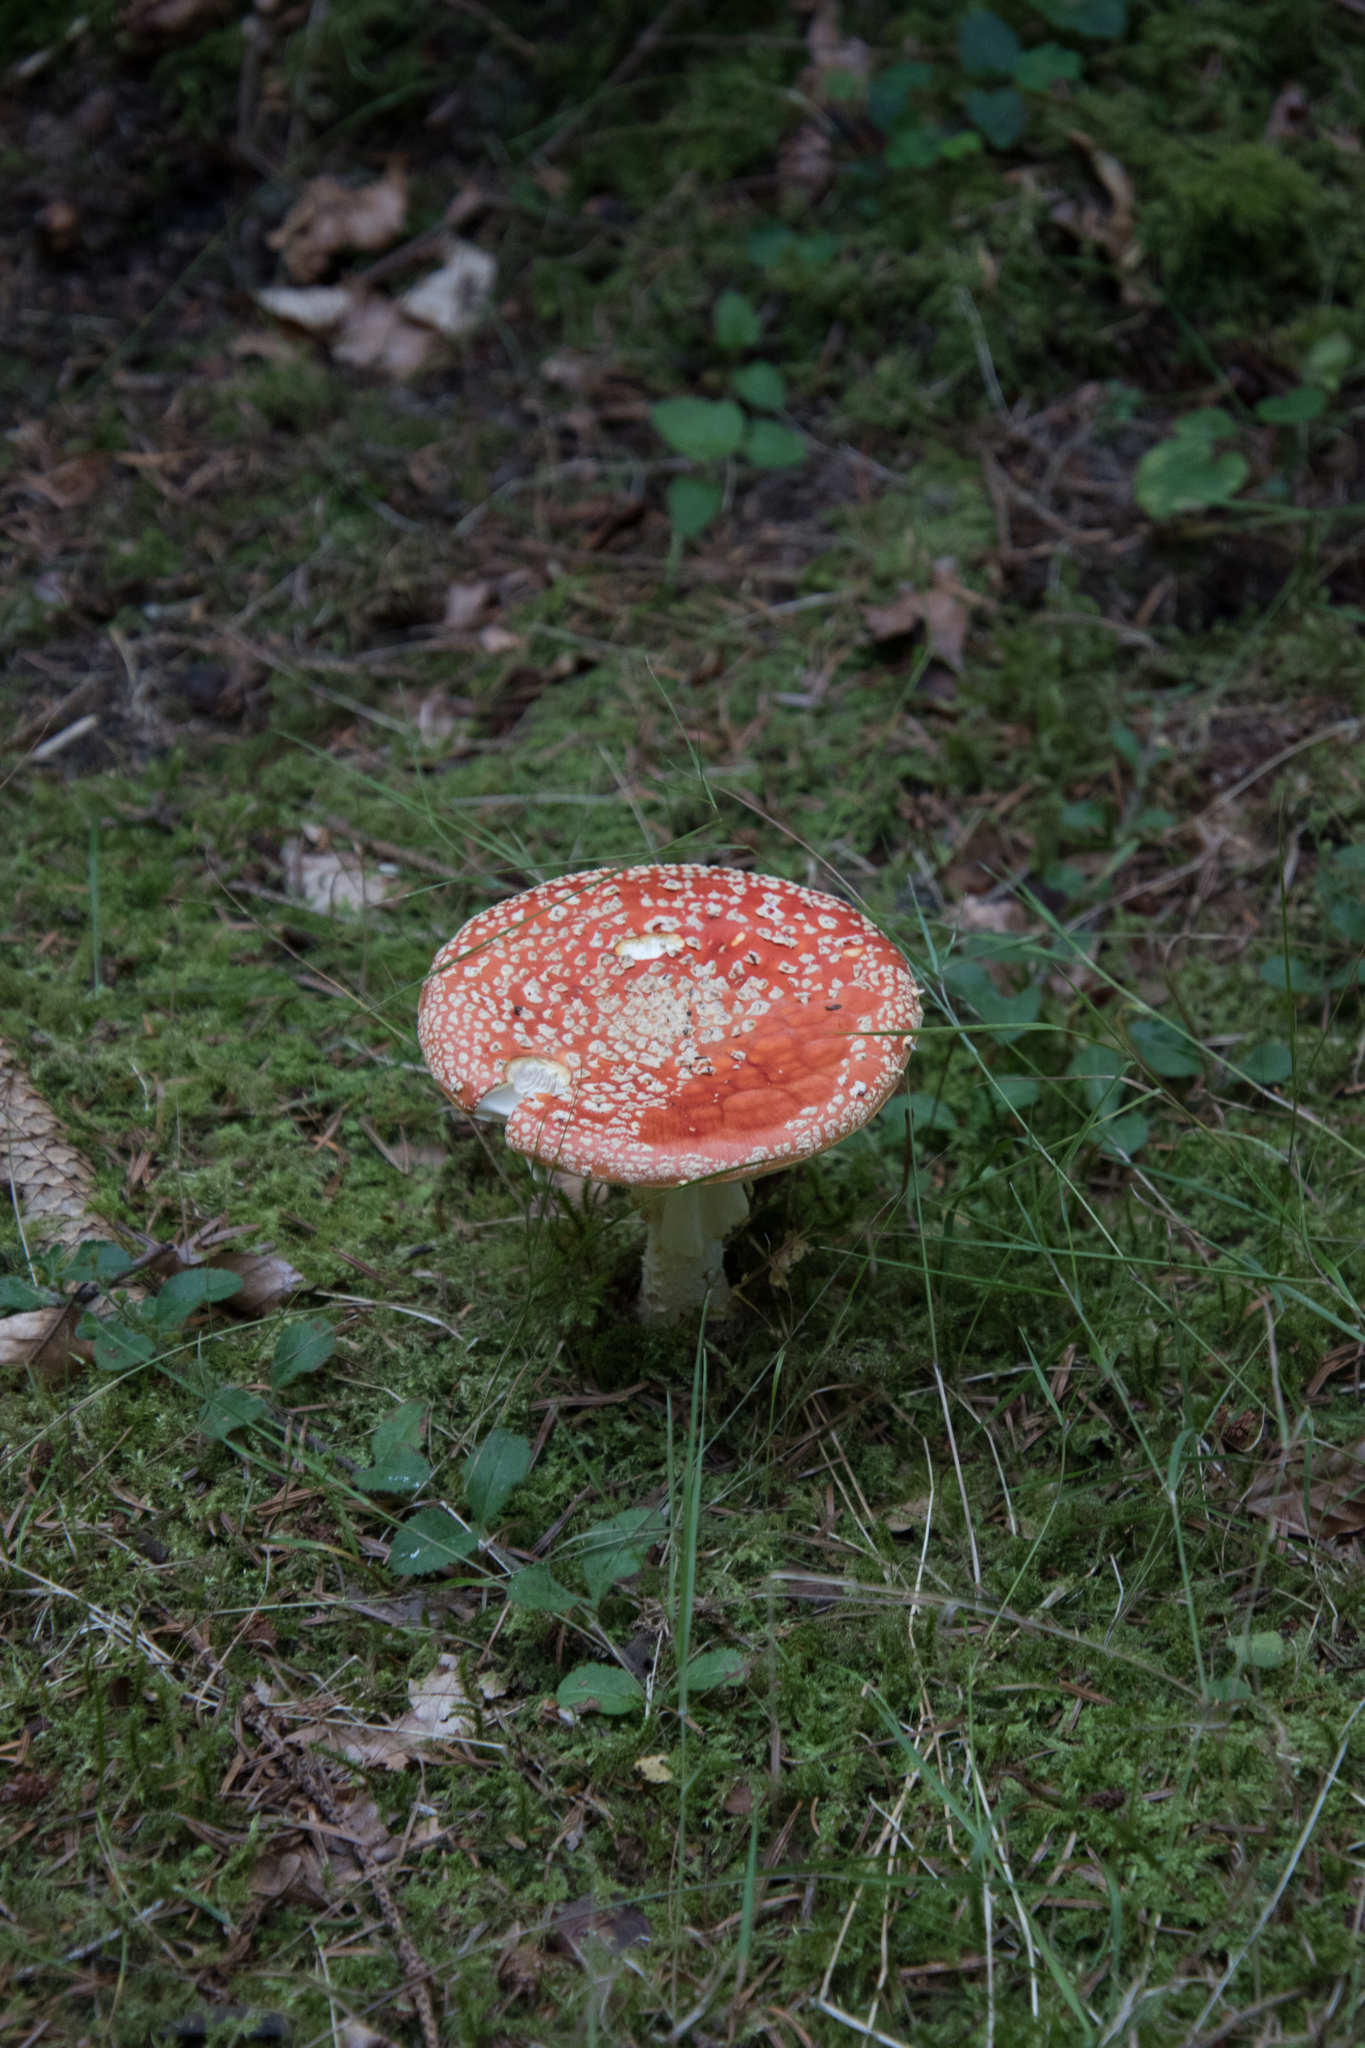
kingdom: Fungi
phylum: Basidiomycota
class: Agaricomycetes
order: Agaricales
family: Amanitaceae
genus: Amanita
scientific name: Amanita muscaria
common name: Fly agaric
